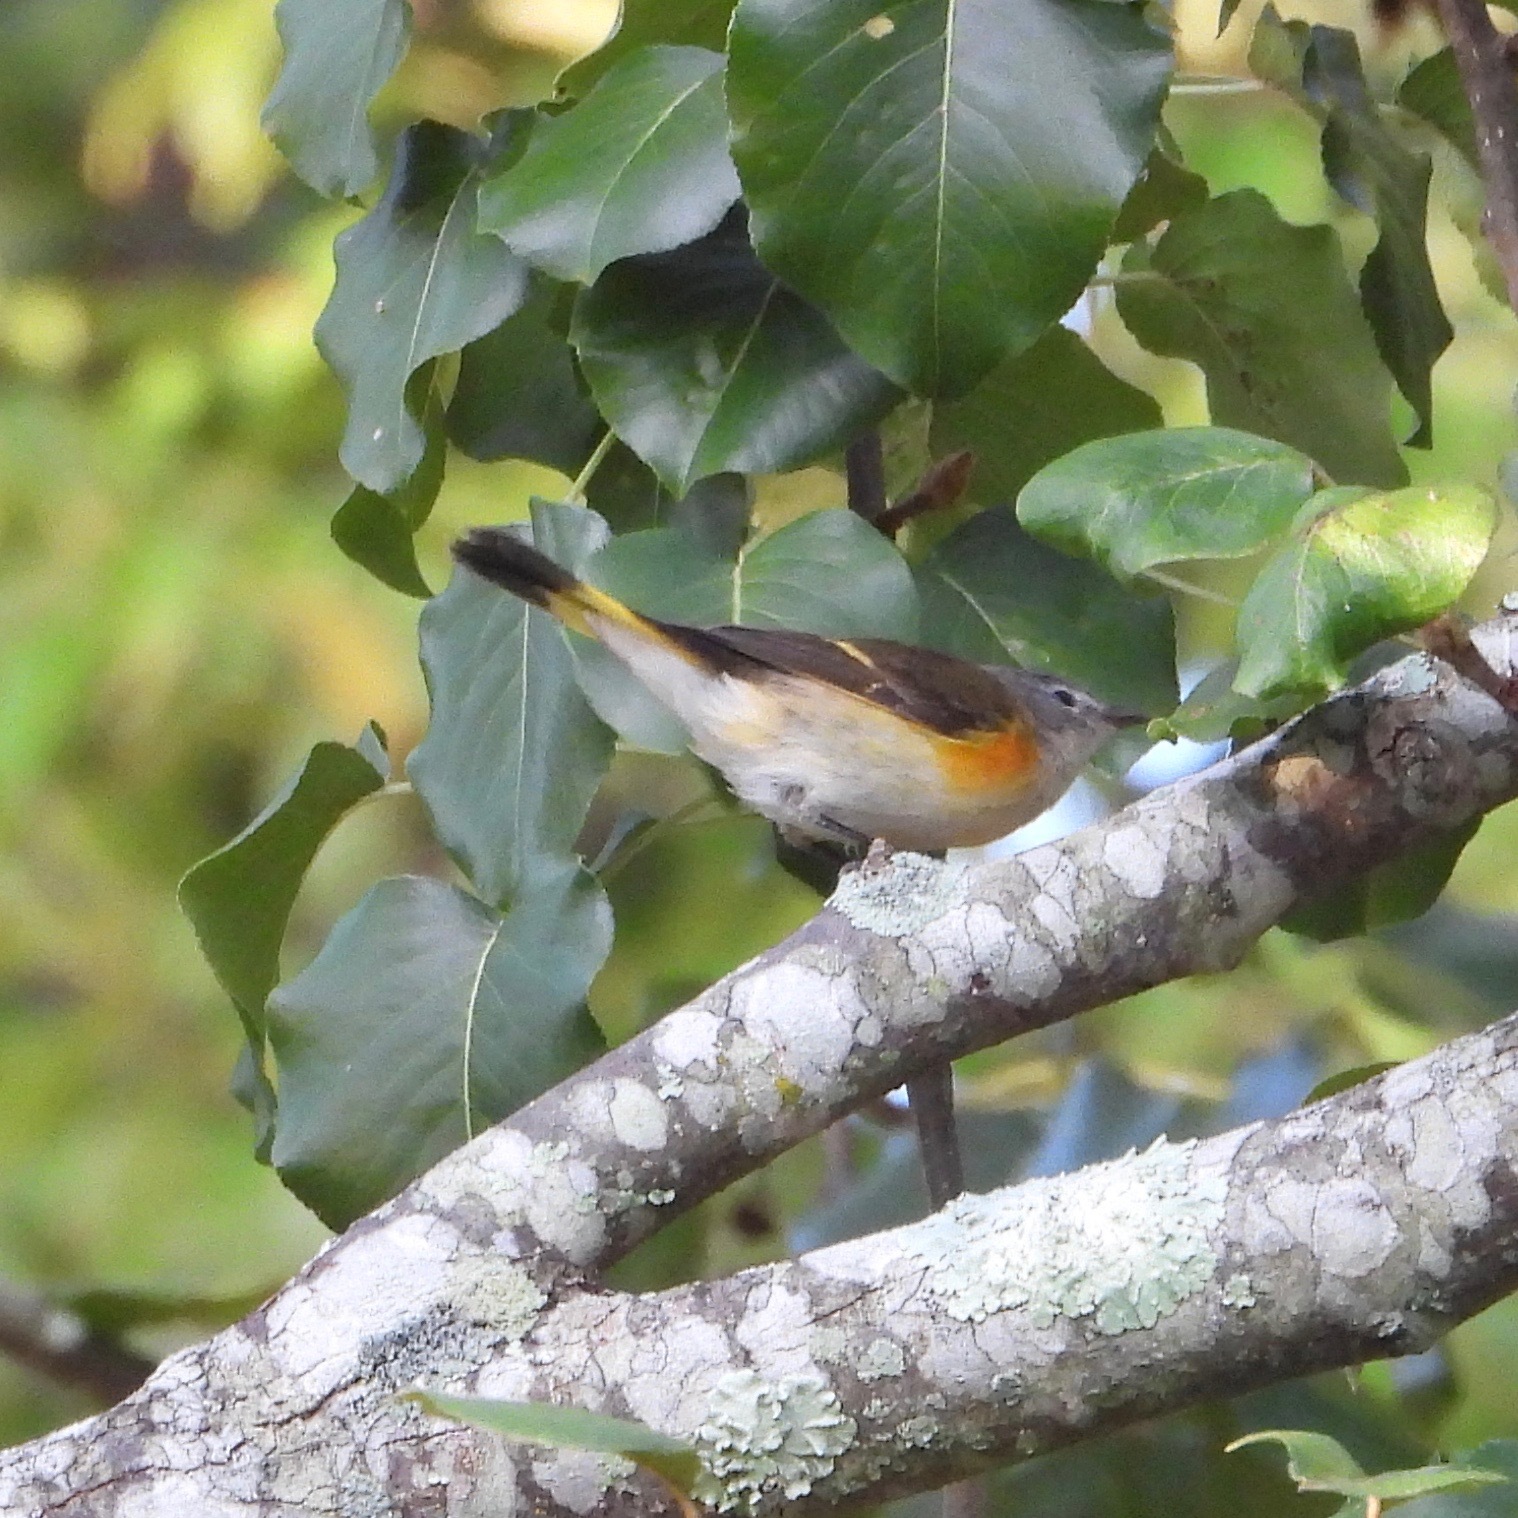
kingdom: Animalia
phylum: Chordata
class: Aves
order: Passeriformes
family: Parulidae
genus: Setophaga
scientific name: Setophaga ruticilla
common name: American redstart
